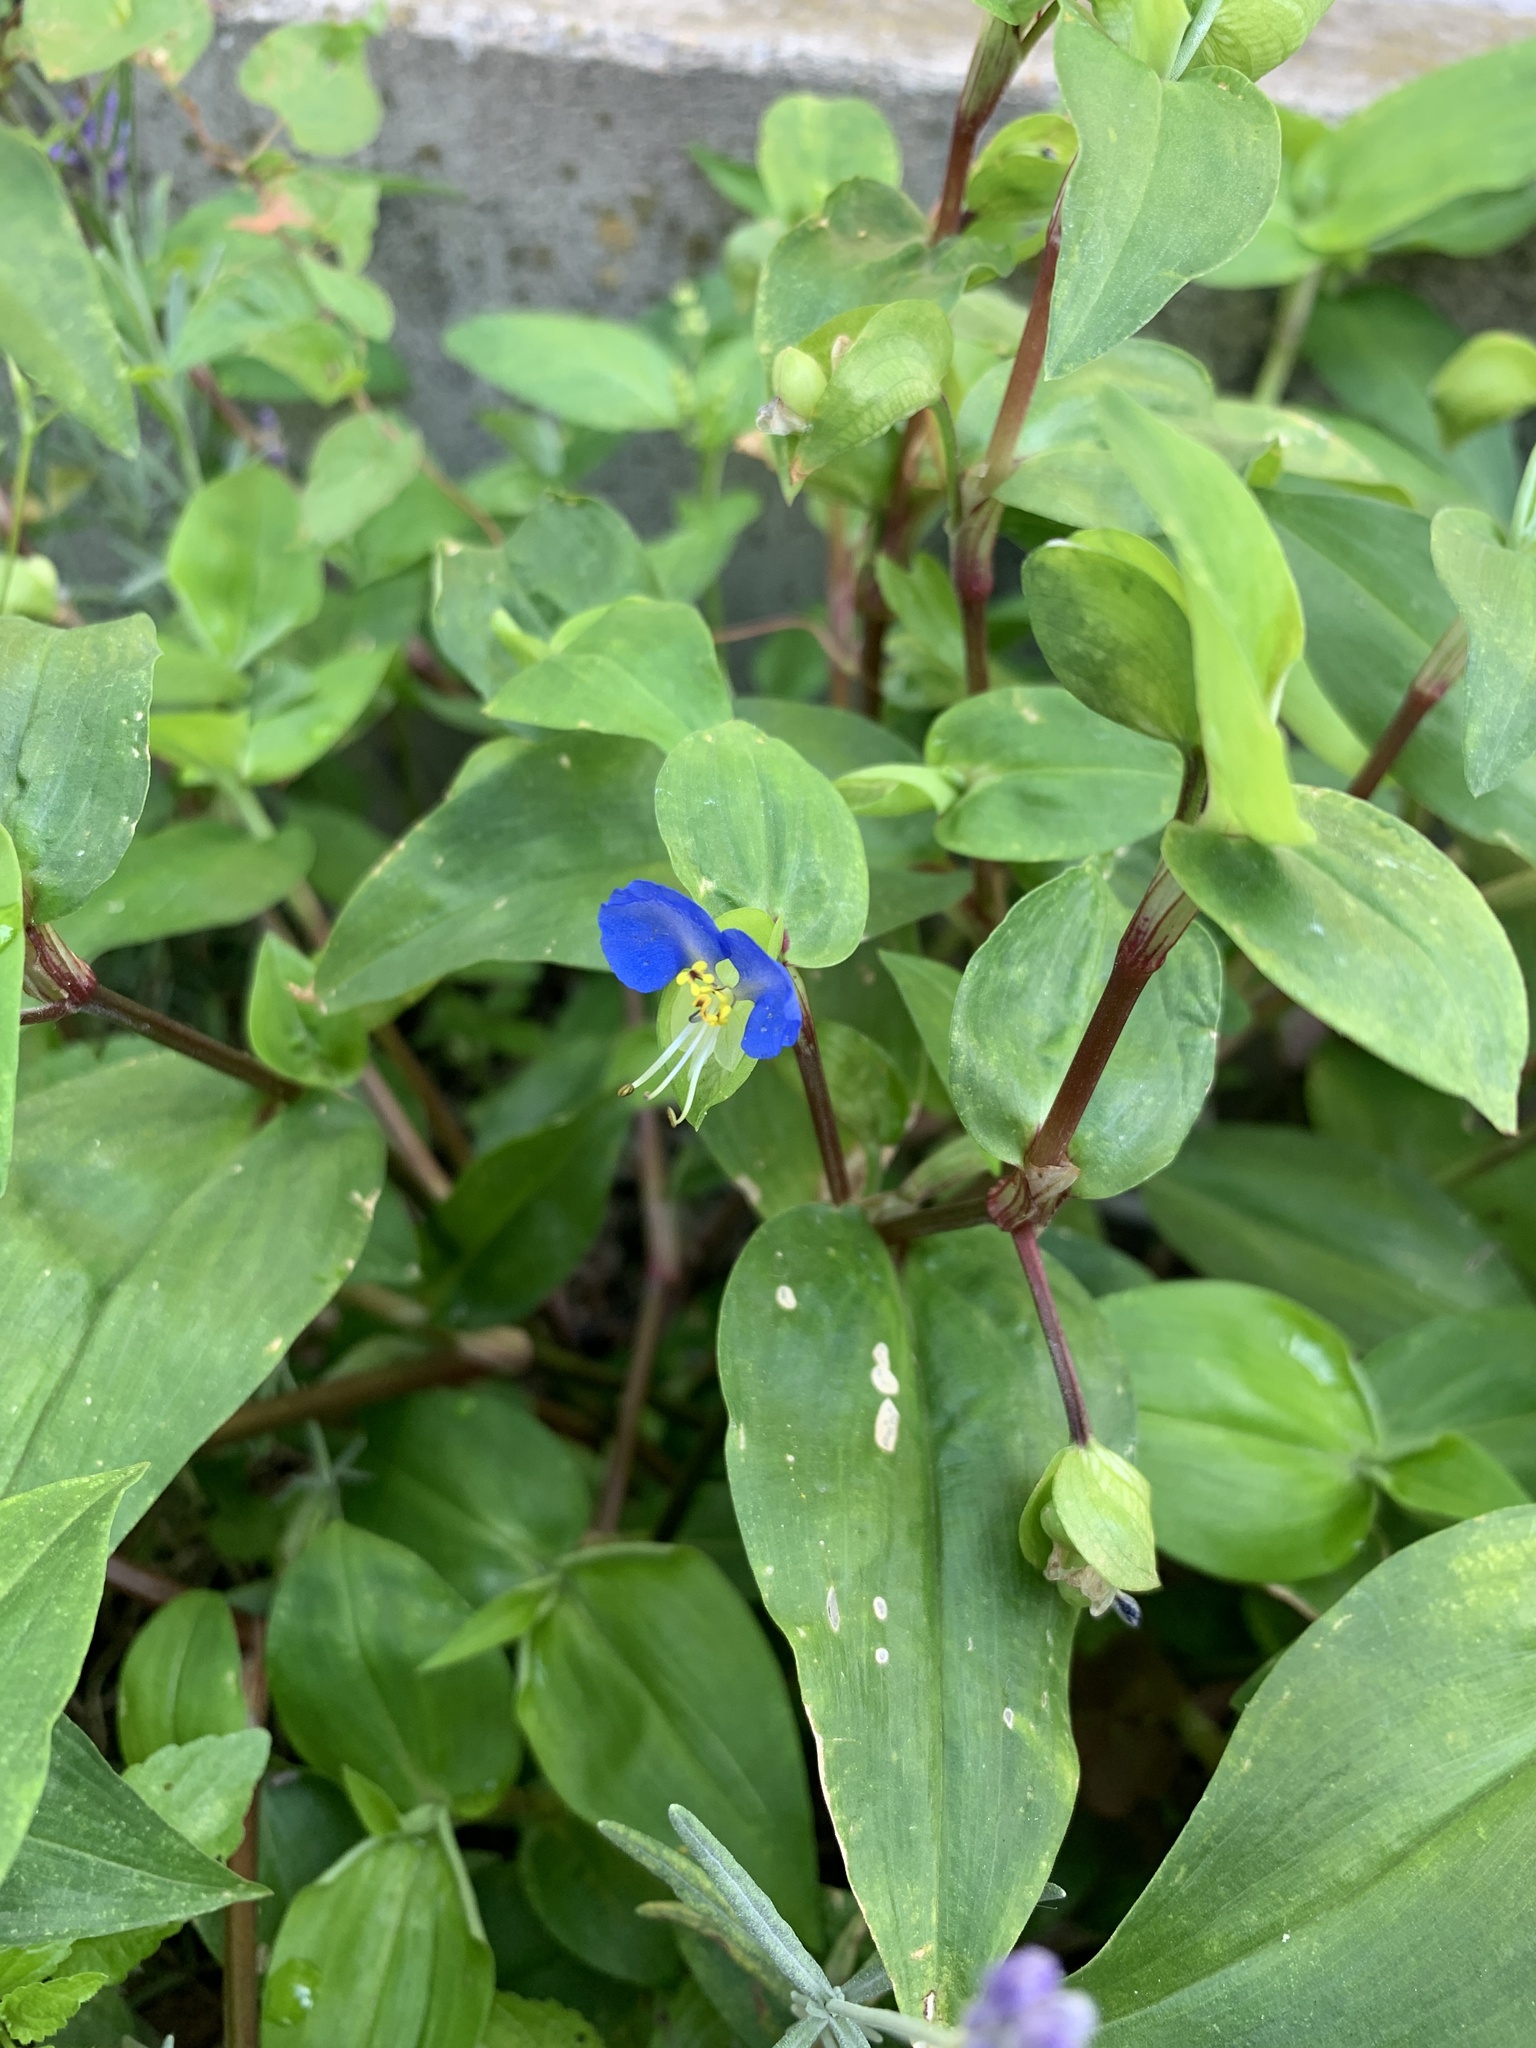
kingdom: Plantae
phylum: Tracheophyta
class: Liliopsida
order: Commelinales
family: Commelinaceae
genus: Commelina
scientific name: Commelina communis
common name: Asiatic dayflower
